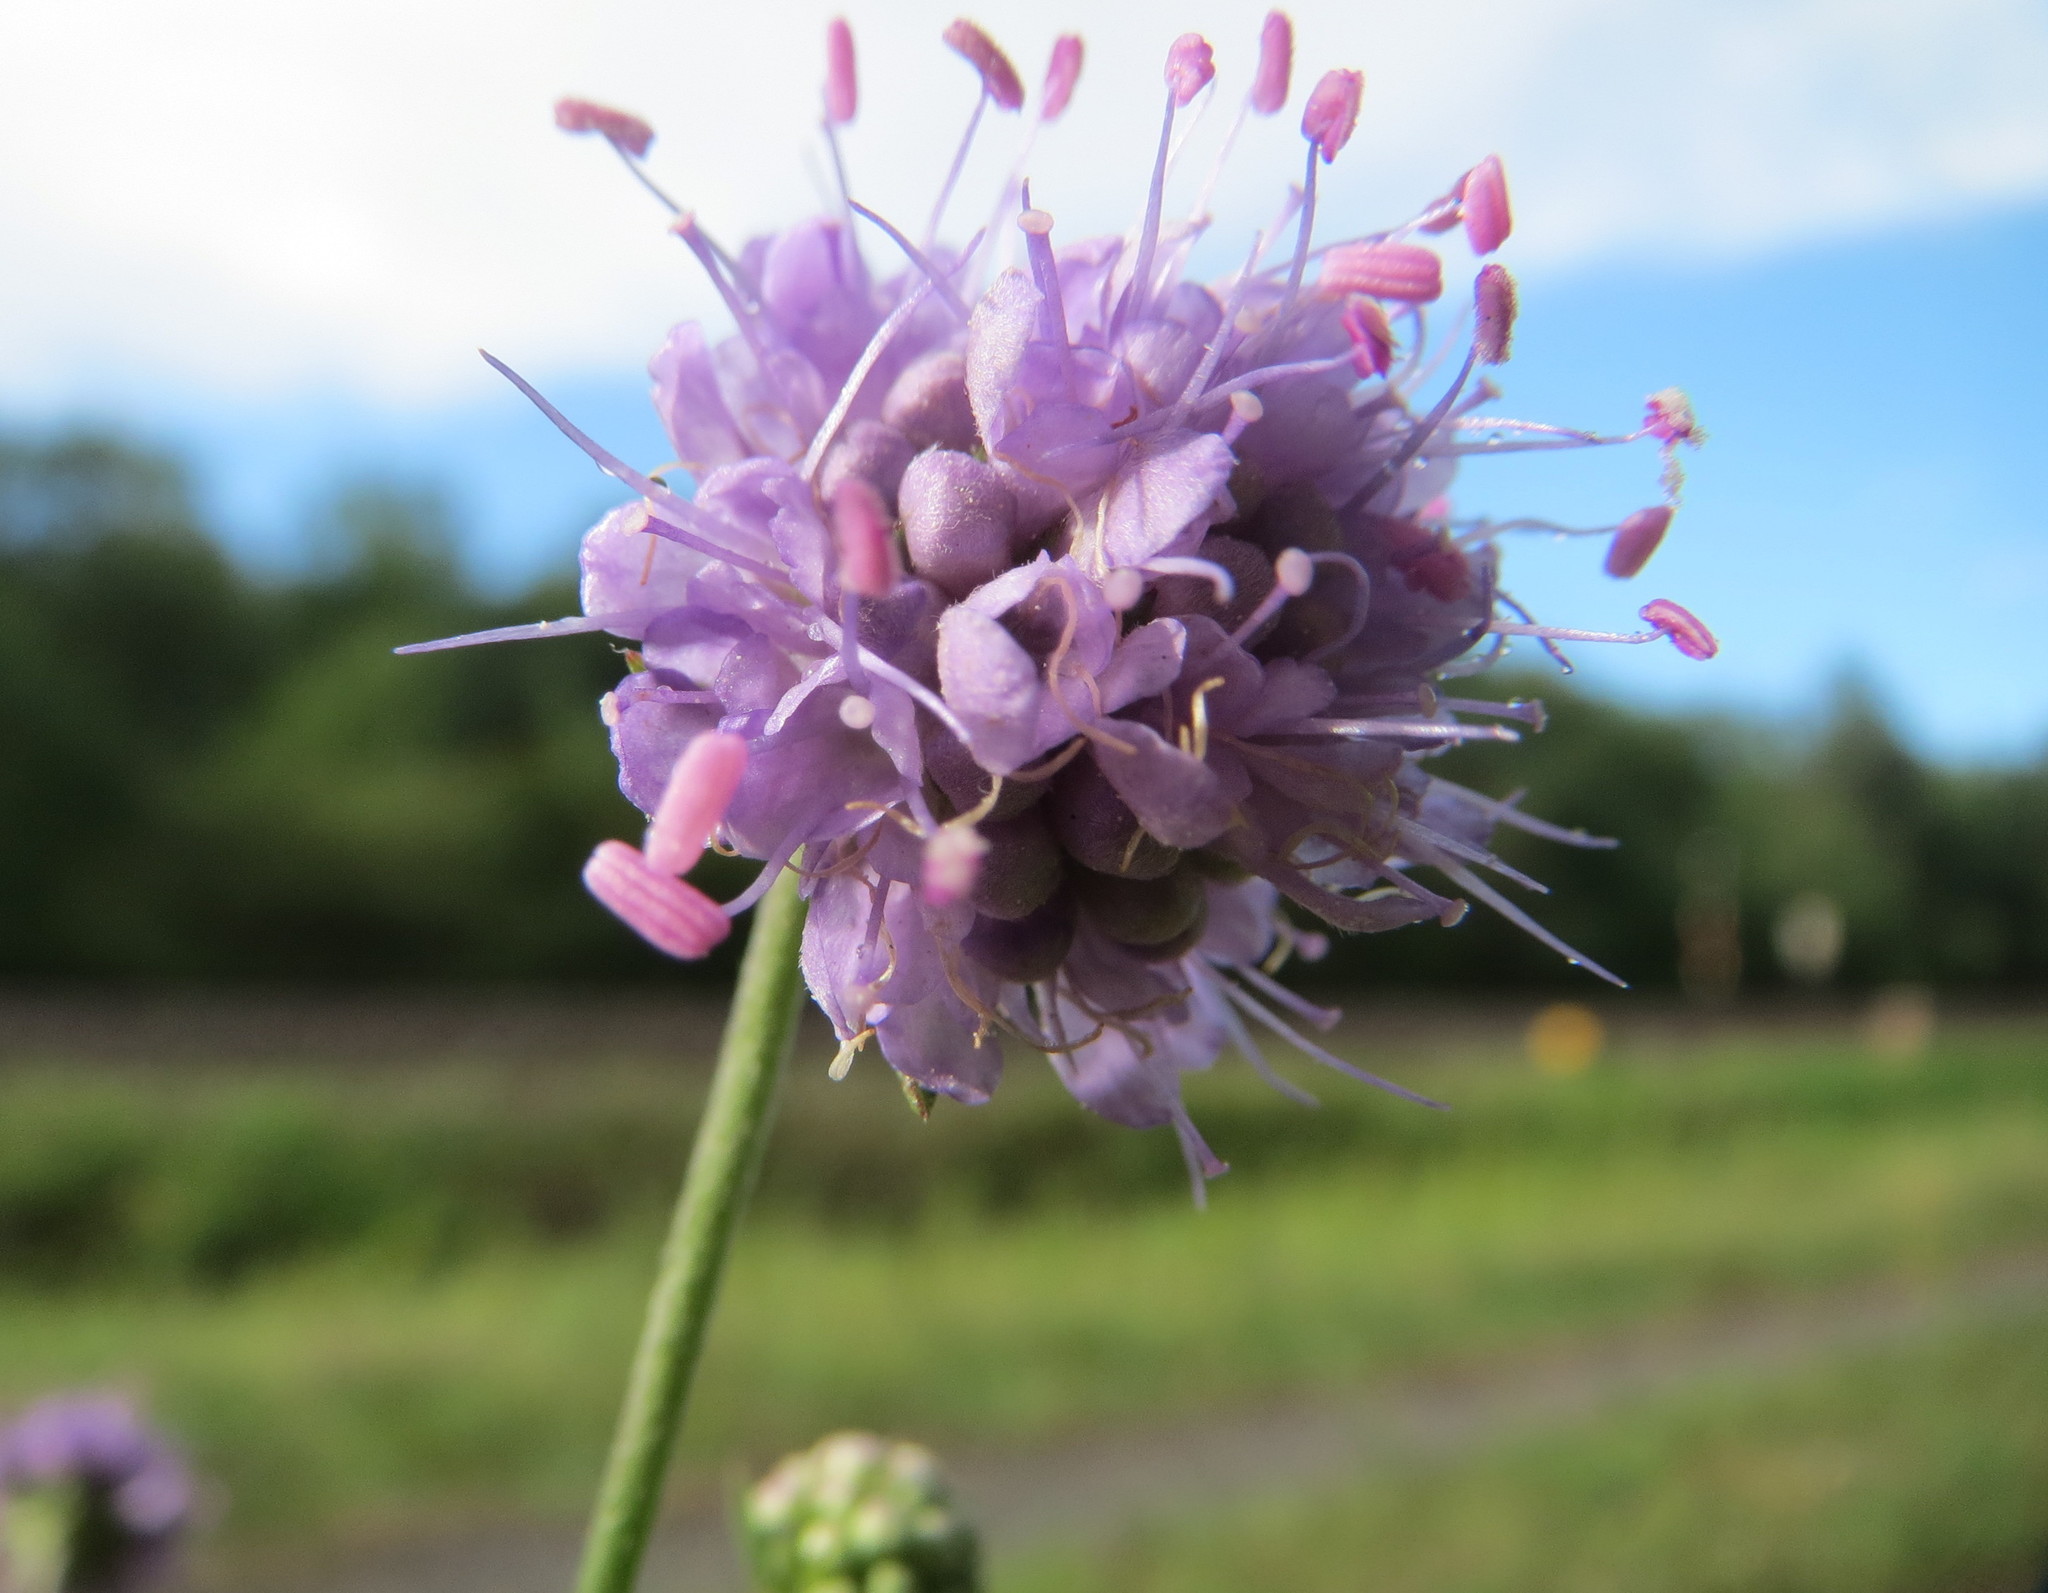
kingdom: Plantae
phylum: Tracheophyta
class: Magnoliopsida
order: Dipsacales
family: Caprifoliaceae
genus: Succisa
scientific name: Succisa pratensis
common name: Devil's-bit
